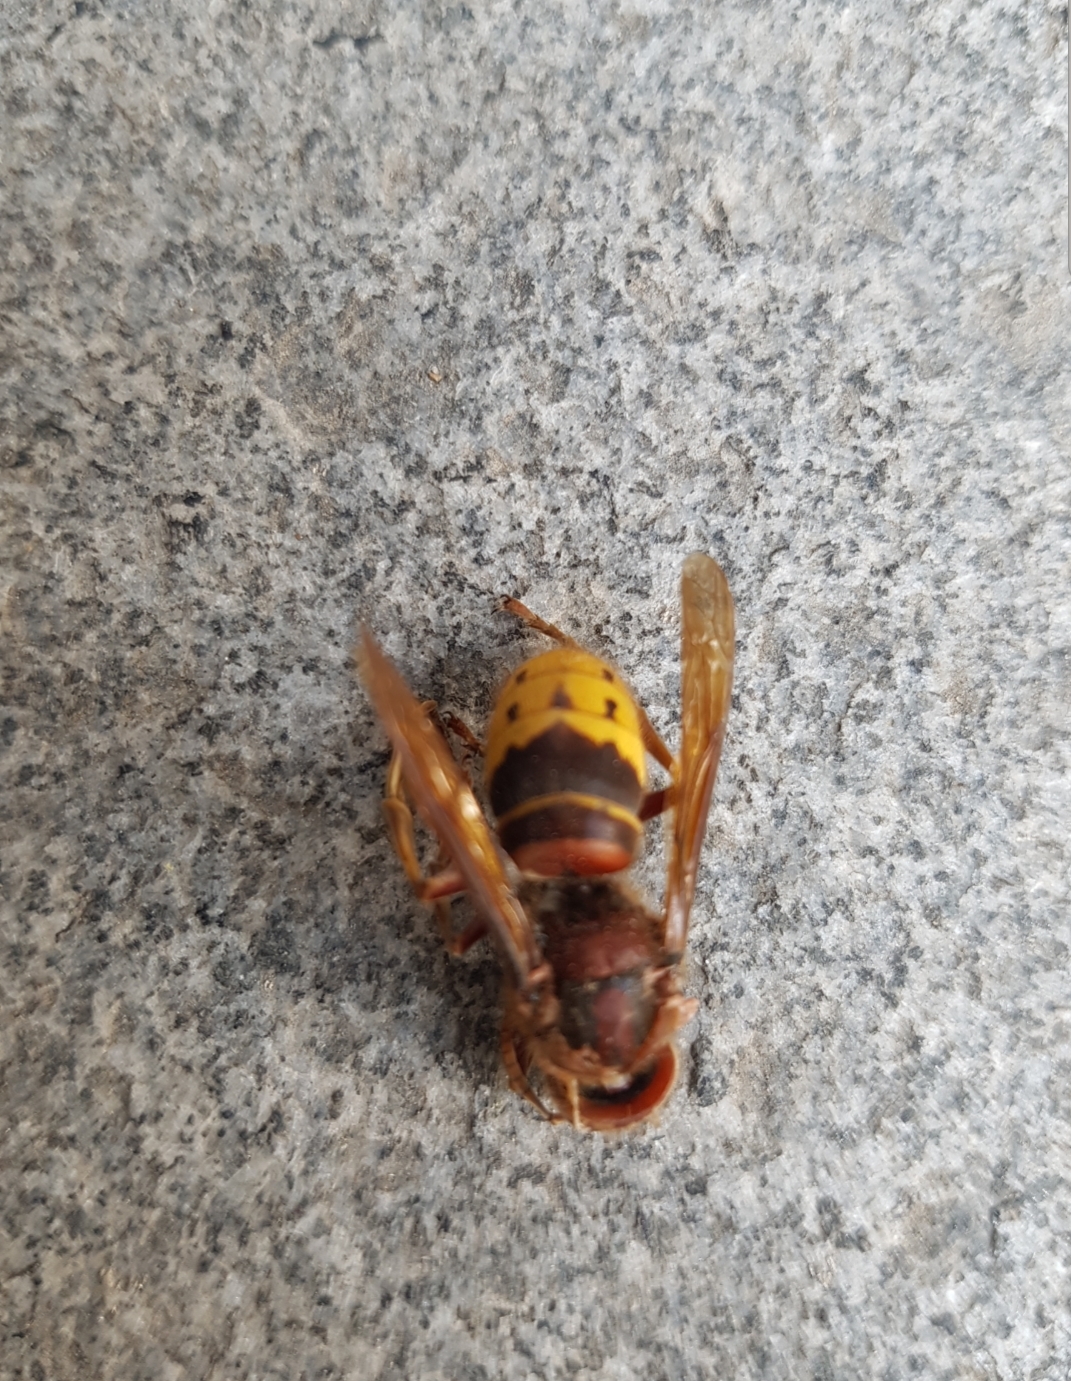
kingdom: Animalia
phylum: Arthropoda
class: Insecta
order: Hymenoptera
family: Vespidae
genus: Vespa
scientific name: Vespa crabro
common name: Hornet
